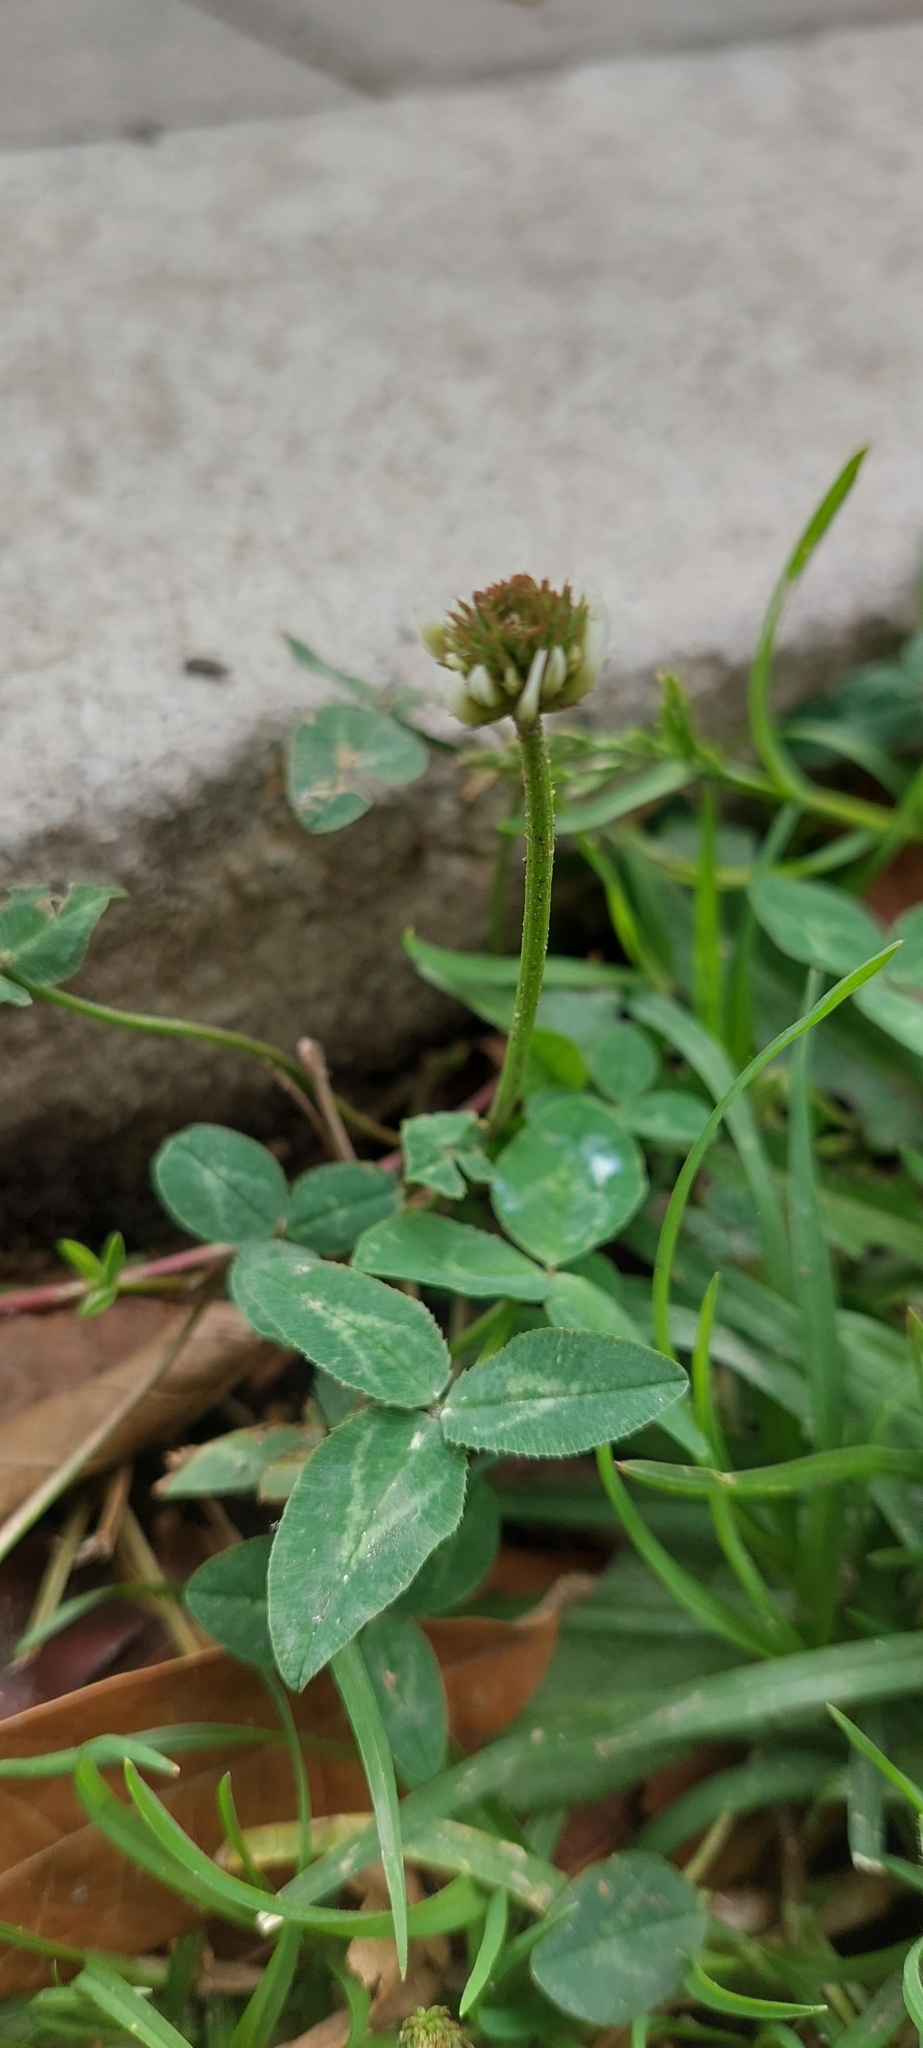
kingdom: Plantae
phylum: Tracheophyta
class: Magnoliopsida
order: Fabales
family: Fabaceae
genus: Trifolium
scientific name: Trifolium repens
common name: White clover
